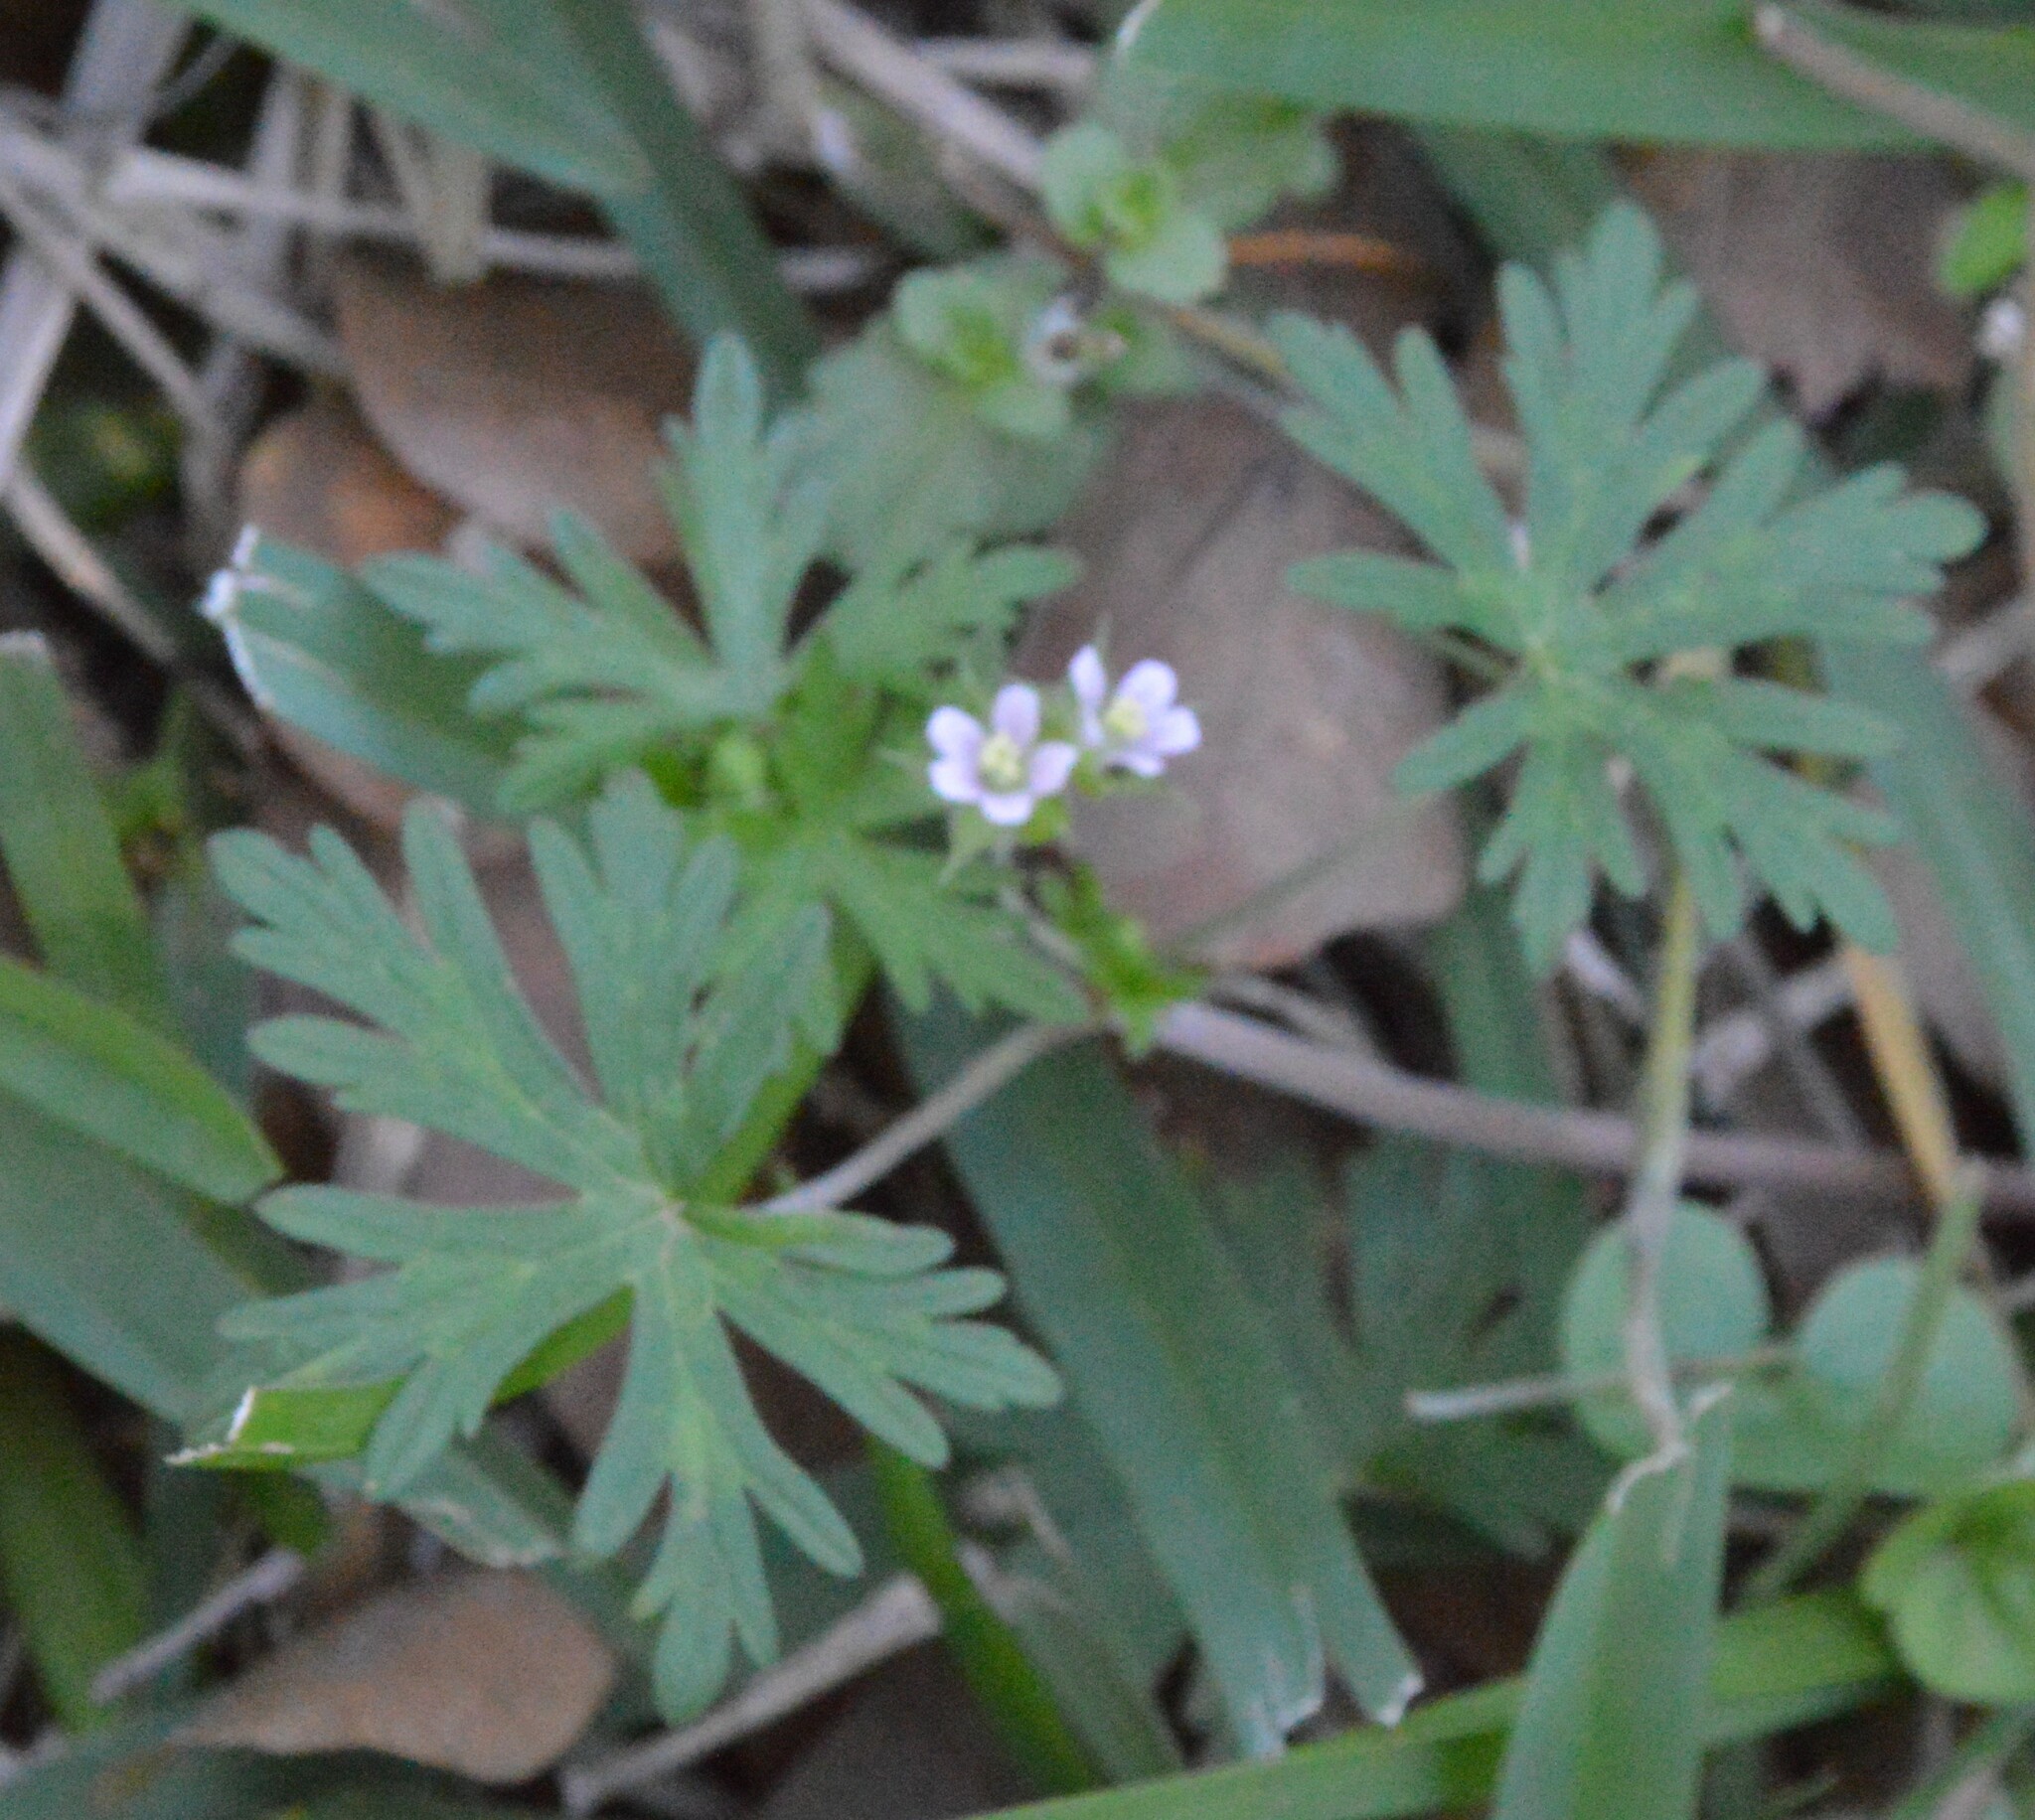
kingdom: Plantae
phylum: Tracheophyta
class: Magnoliopsida
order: Geraniales
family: Geraniaceae
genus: Geranium
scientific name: Geranium carolinianum
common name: Carolina crane's-bill
